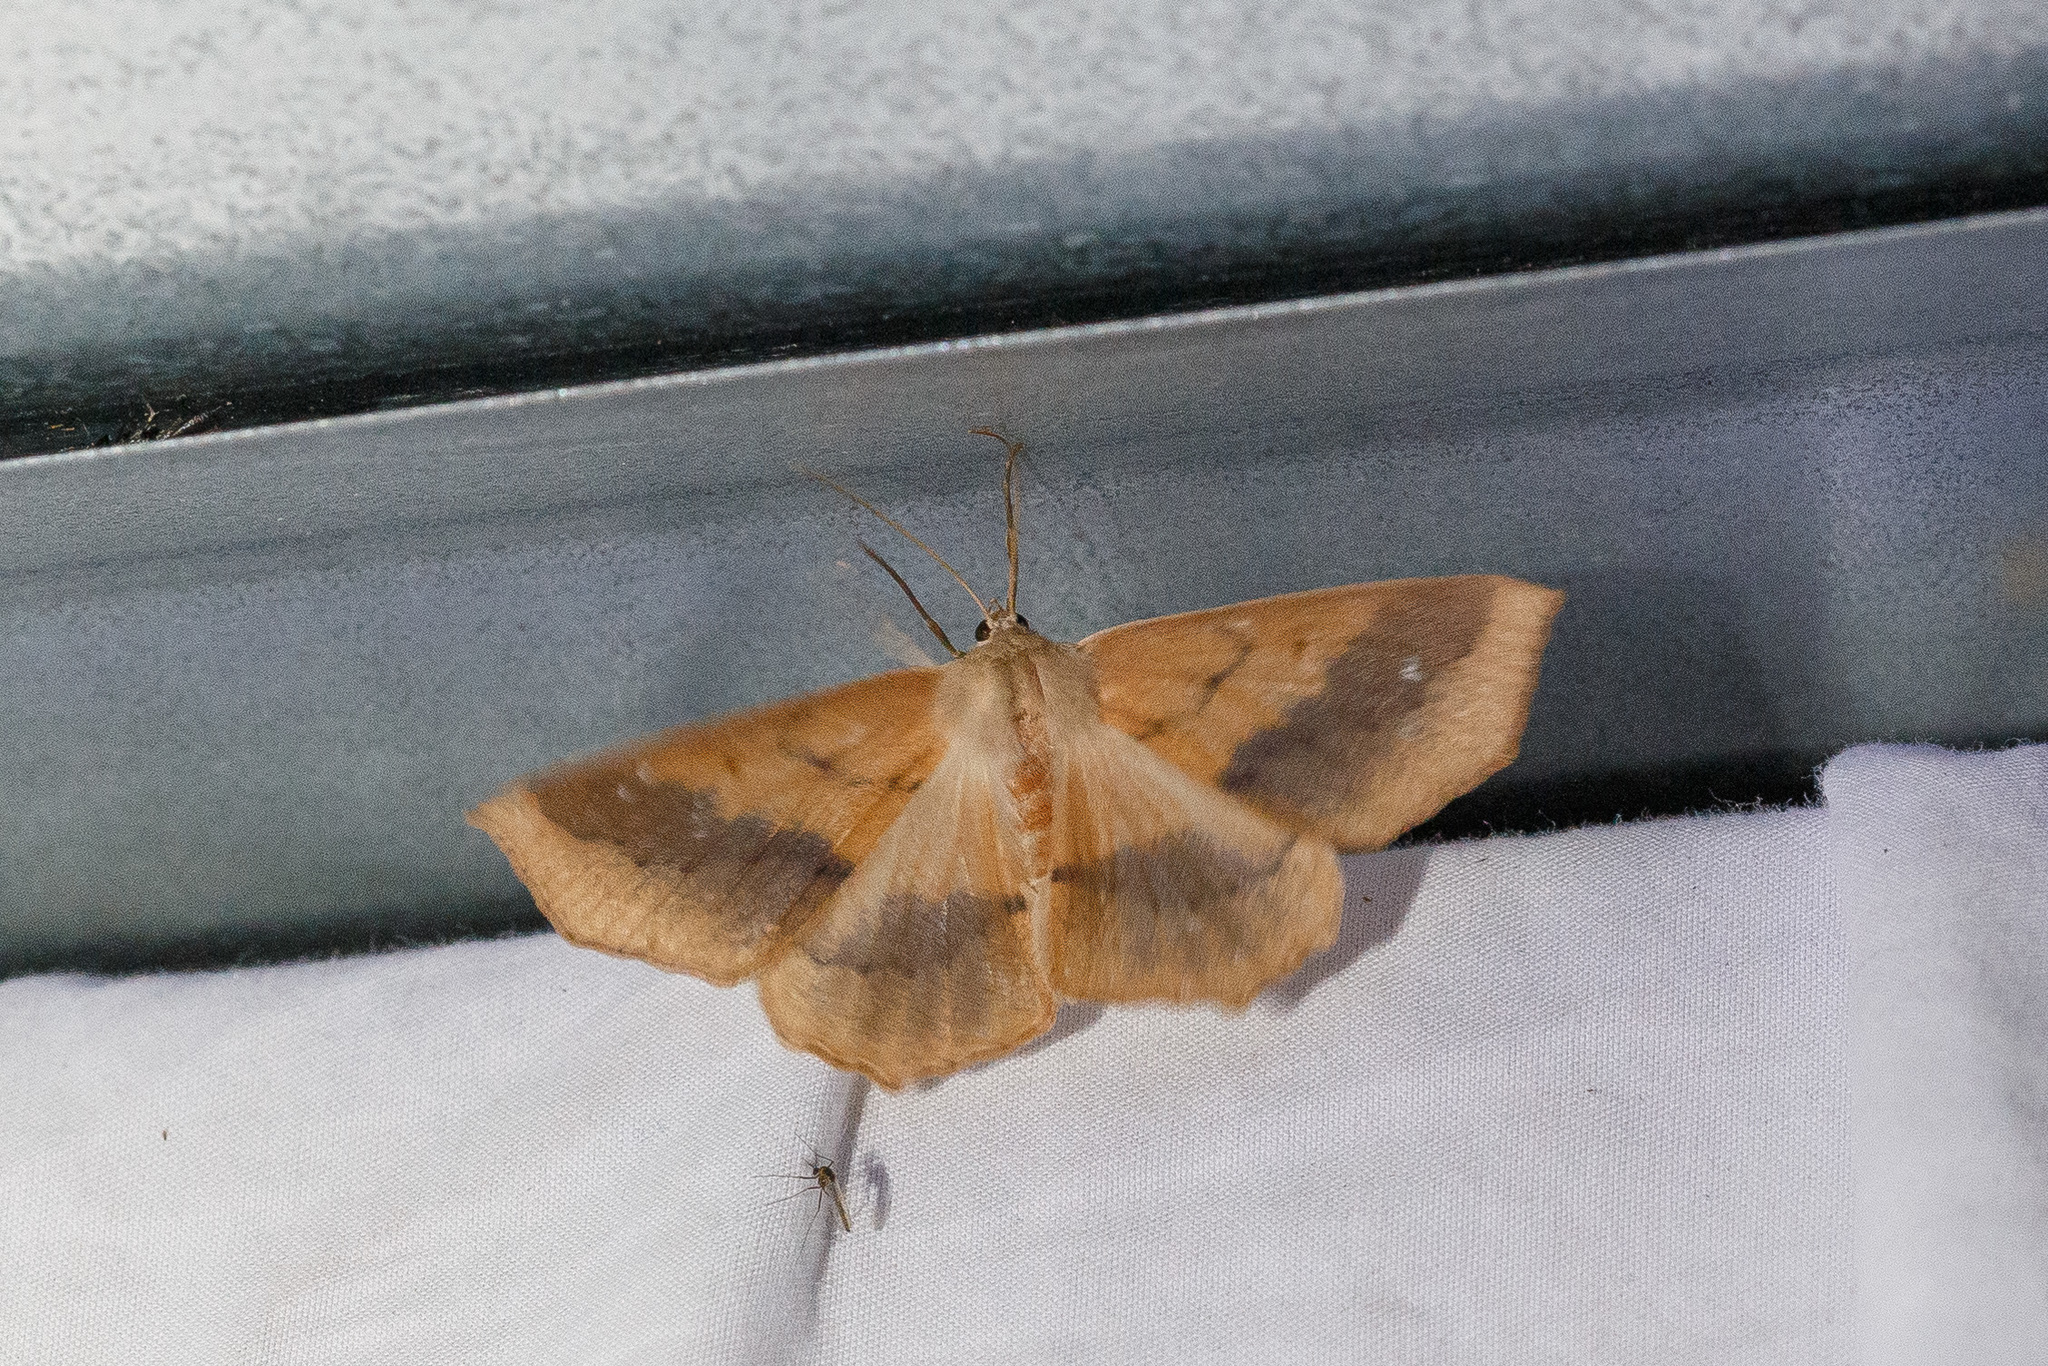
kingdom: Animalia
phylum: Arthropoda
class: Insecta
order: Lepidoptera
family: Geometridae
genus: Sabulodes
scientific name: Sabulodes aegrotata
